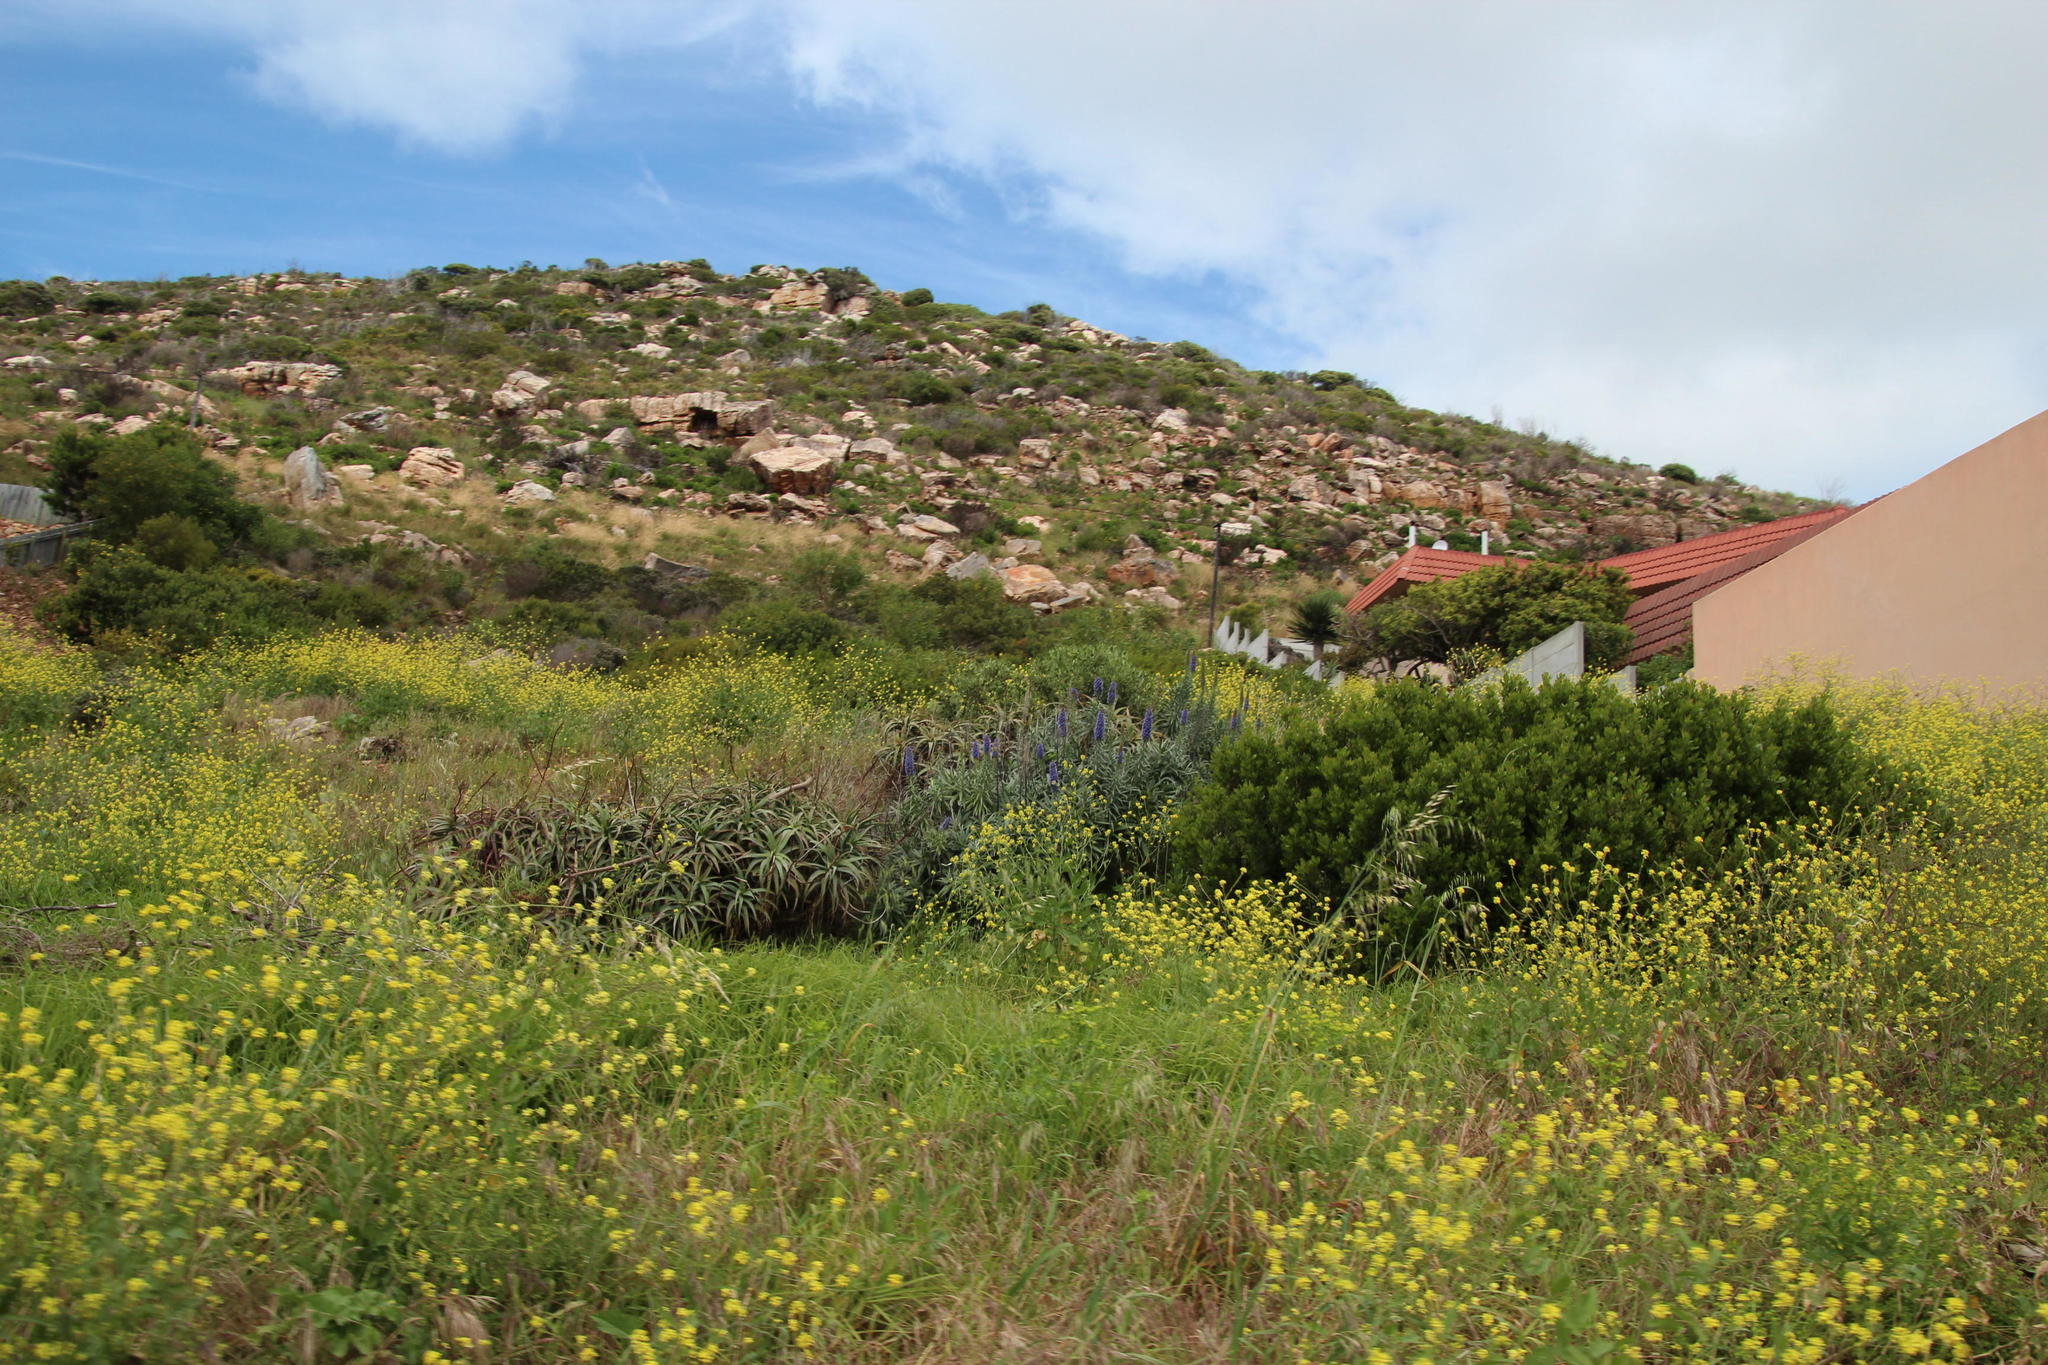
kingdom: Plantae
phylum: Tracheophyta
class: Magnoliopsida
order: Boraginales
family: Boraginaceae
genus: Echium
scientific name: Echium candicans
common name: Pride of madeira
